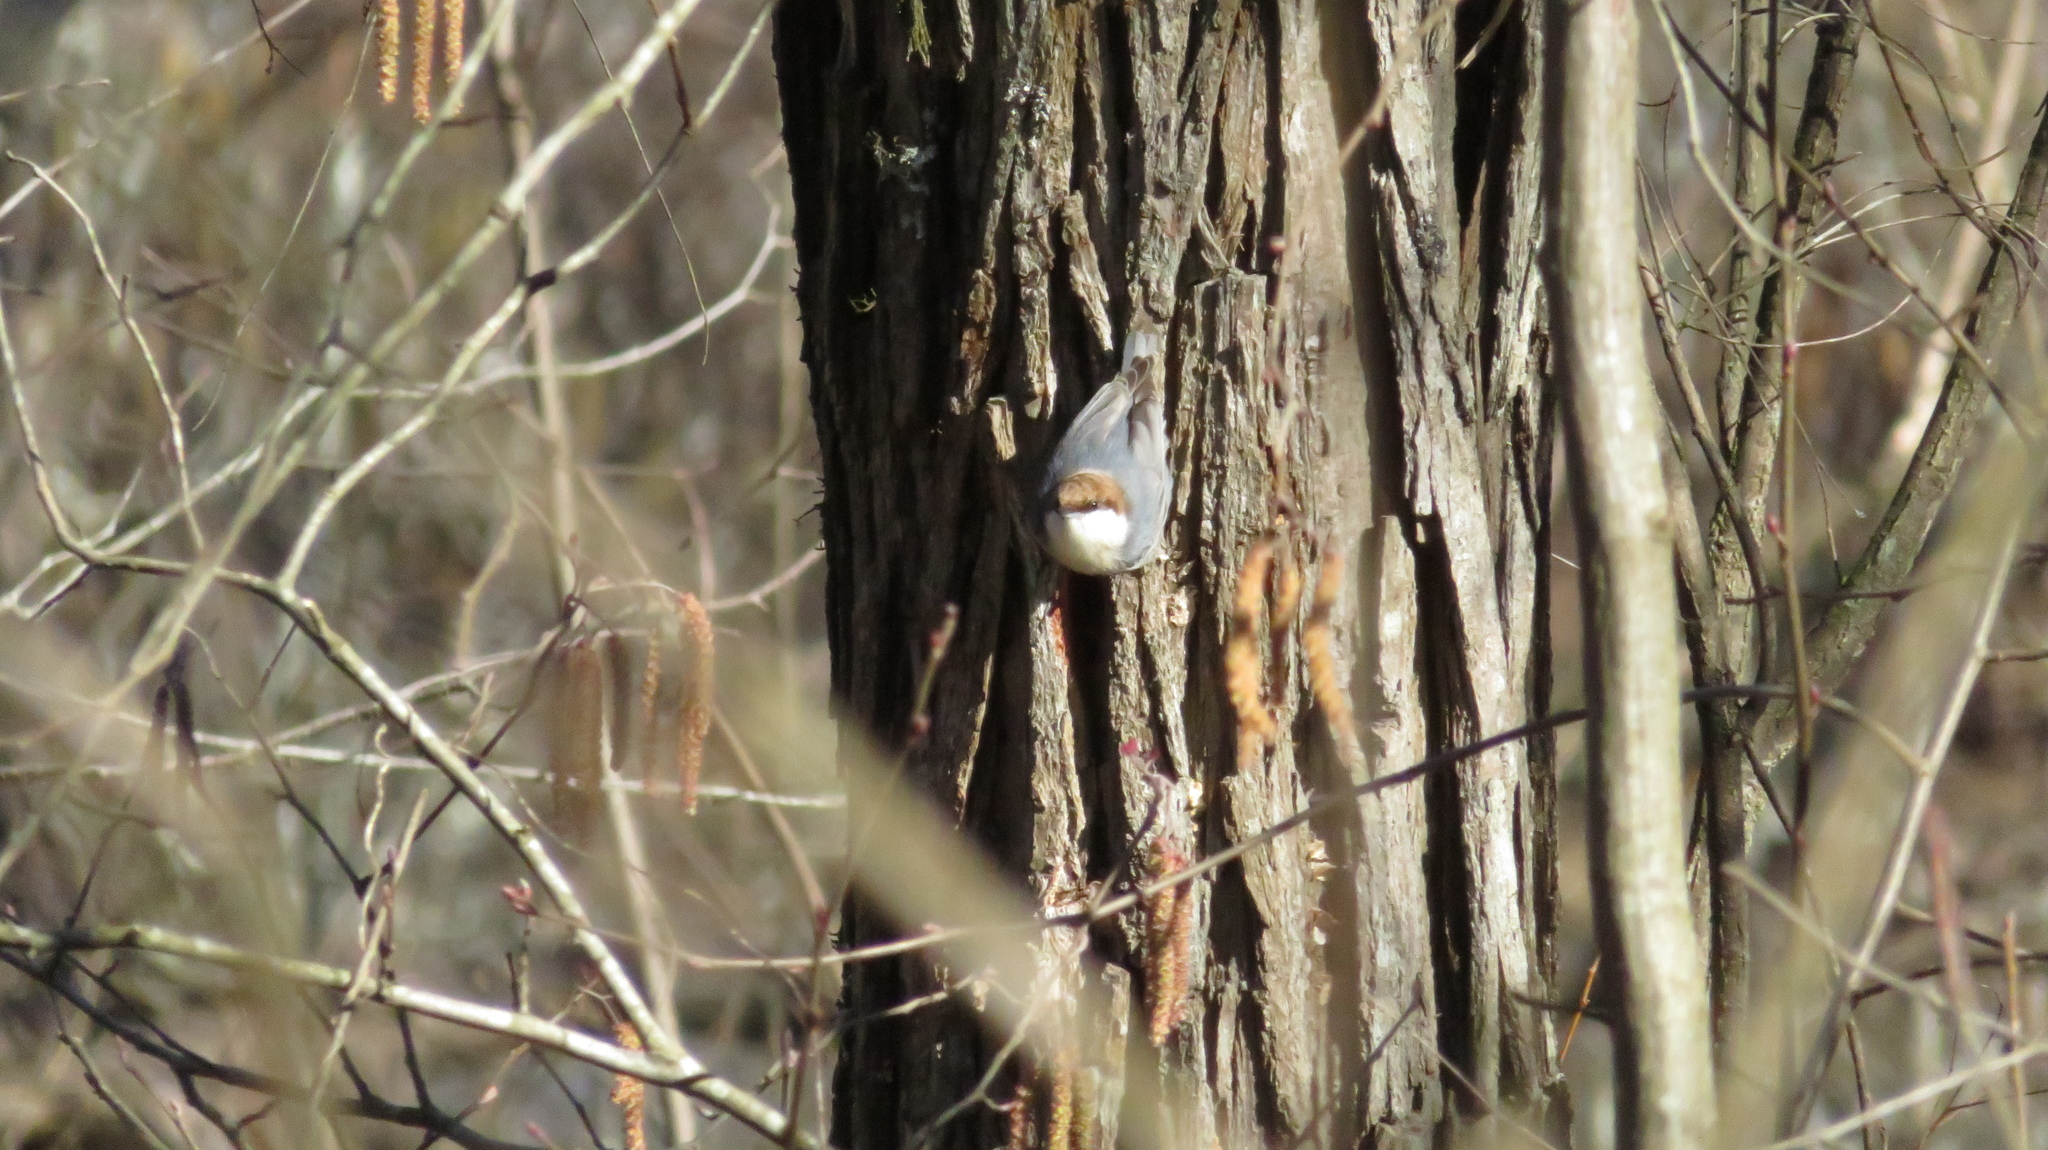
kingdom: Animalia
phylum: Chordata
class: Aves
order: Passeriformes
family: Sittidae
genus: Sitta
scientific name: Sitta pusilla
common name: Brown-headed nuthatch
